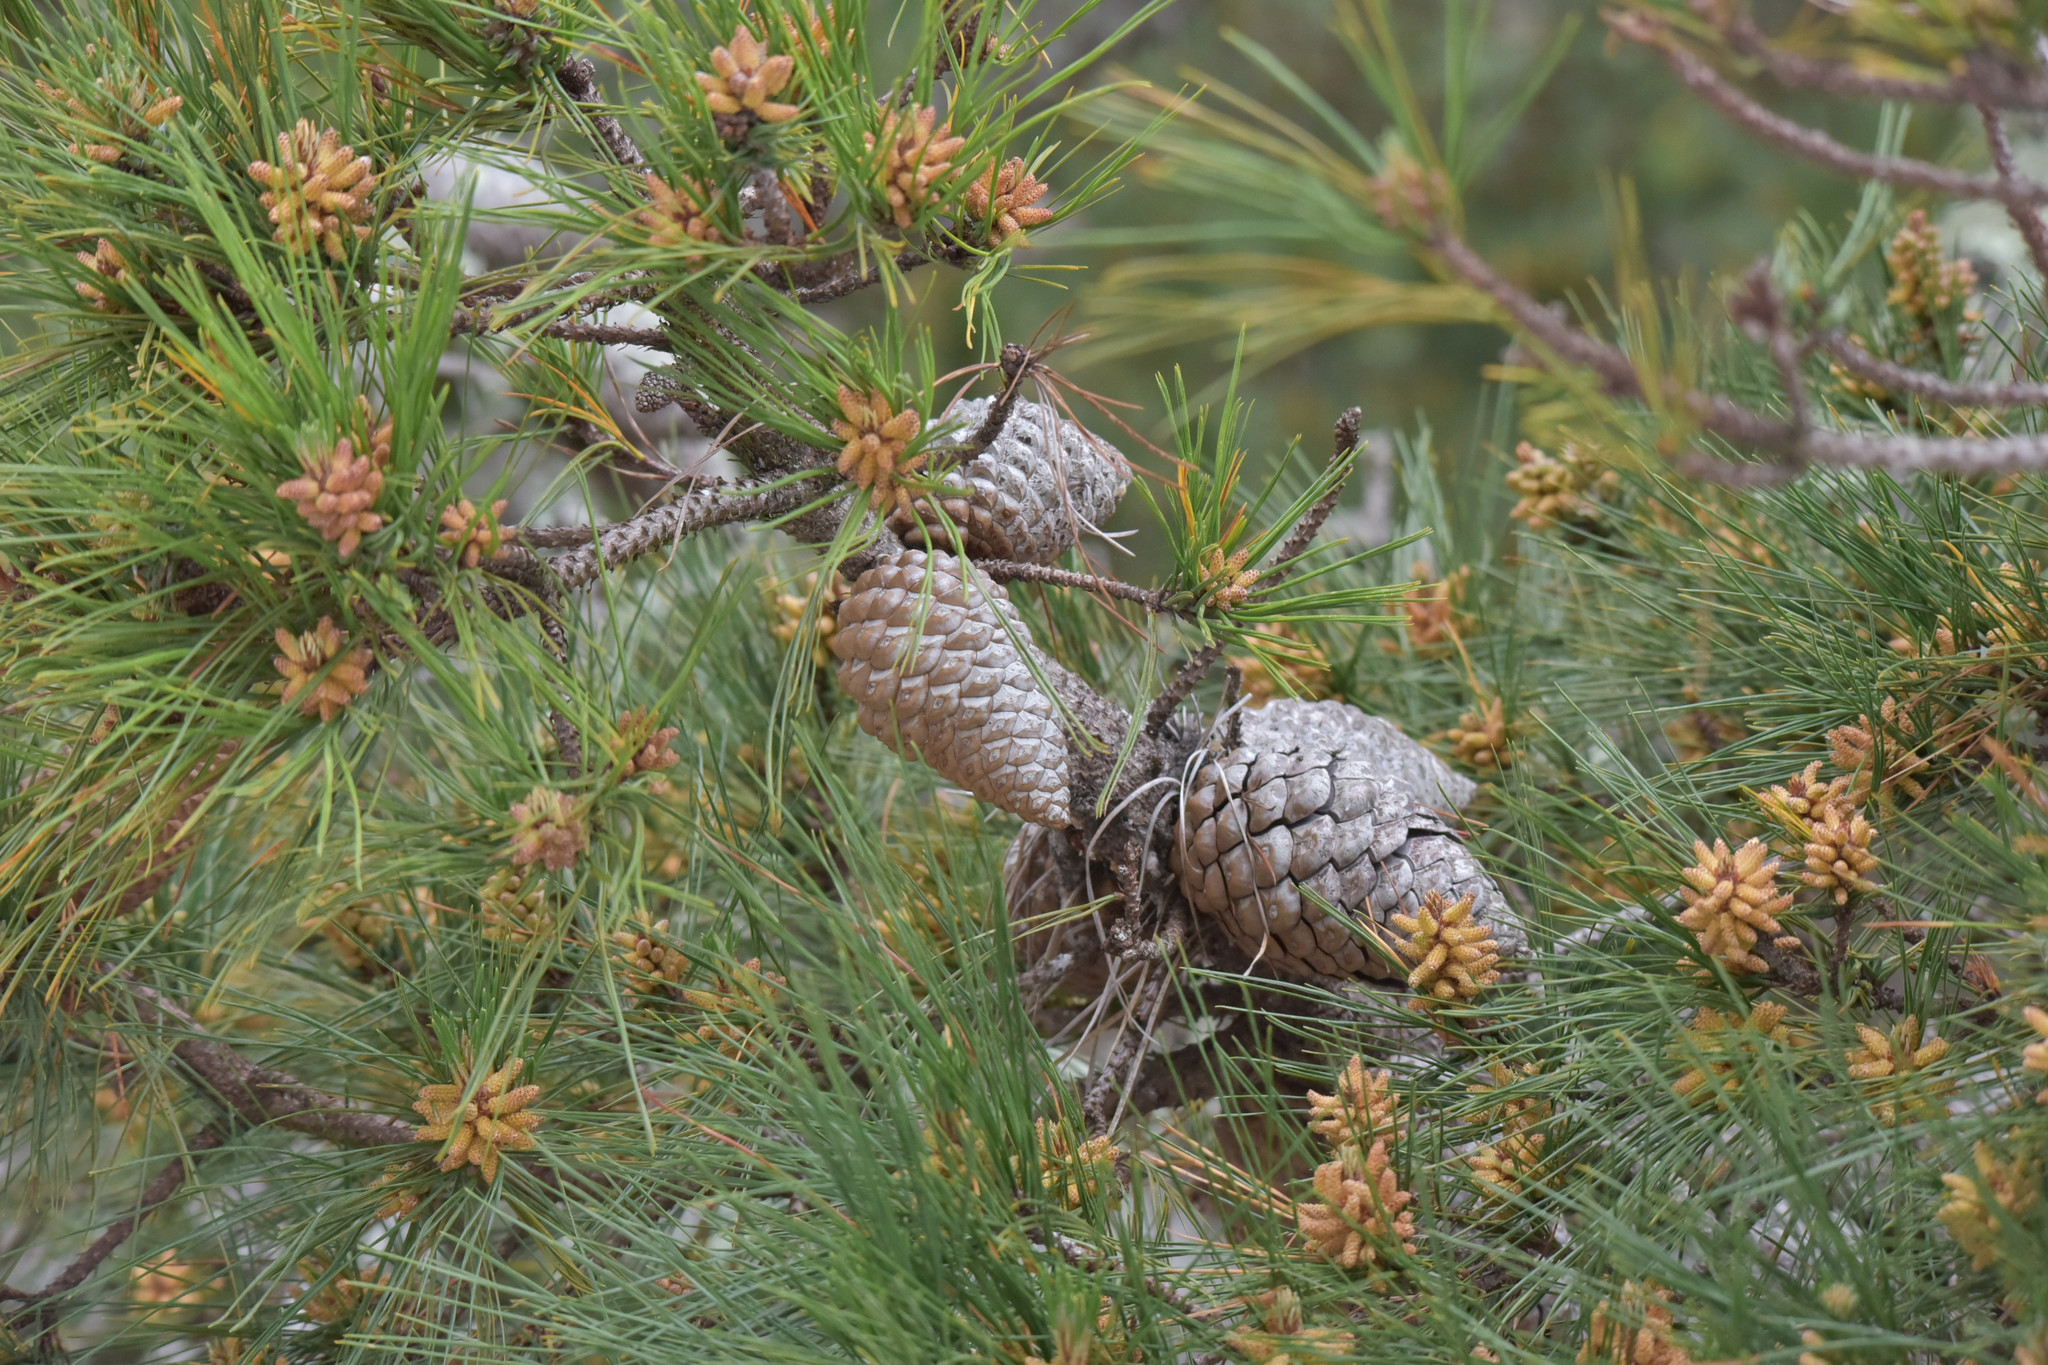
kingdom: Plantae
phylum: Tracheophyta
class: Pinopsida
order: Pinales
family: Pinaceae
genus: Pinus
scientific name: Pinus radiata
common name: Monterey pine
